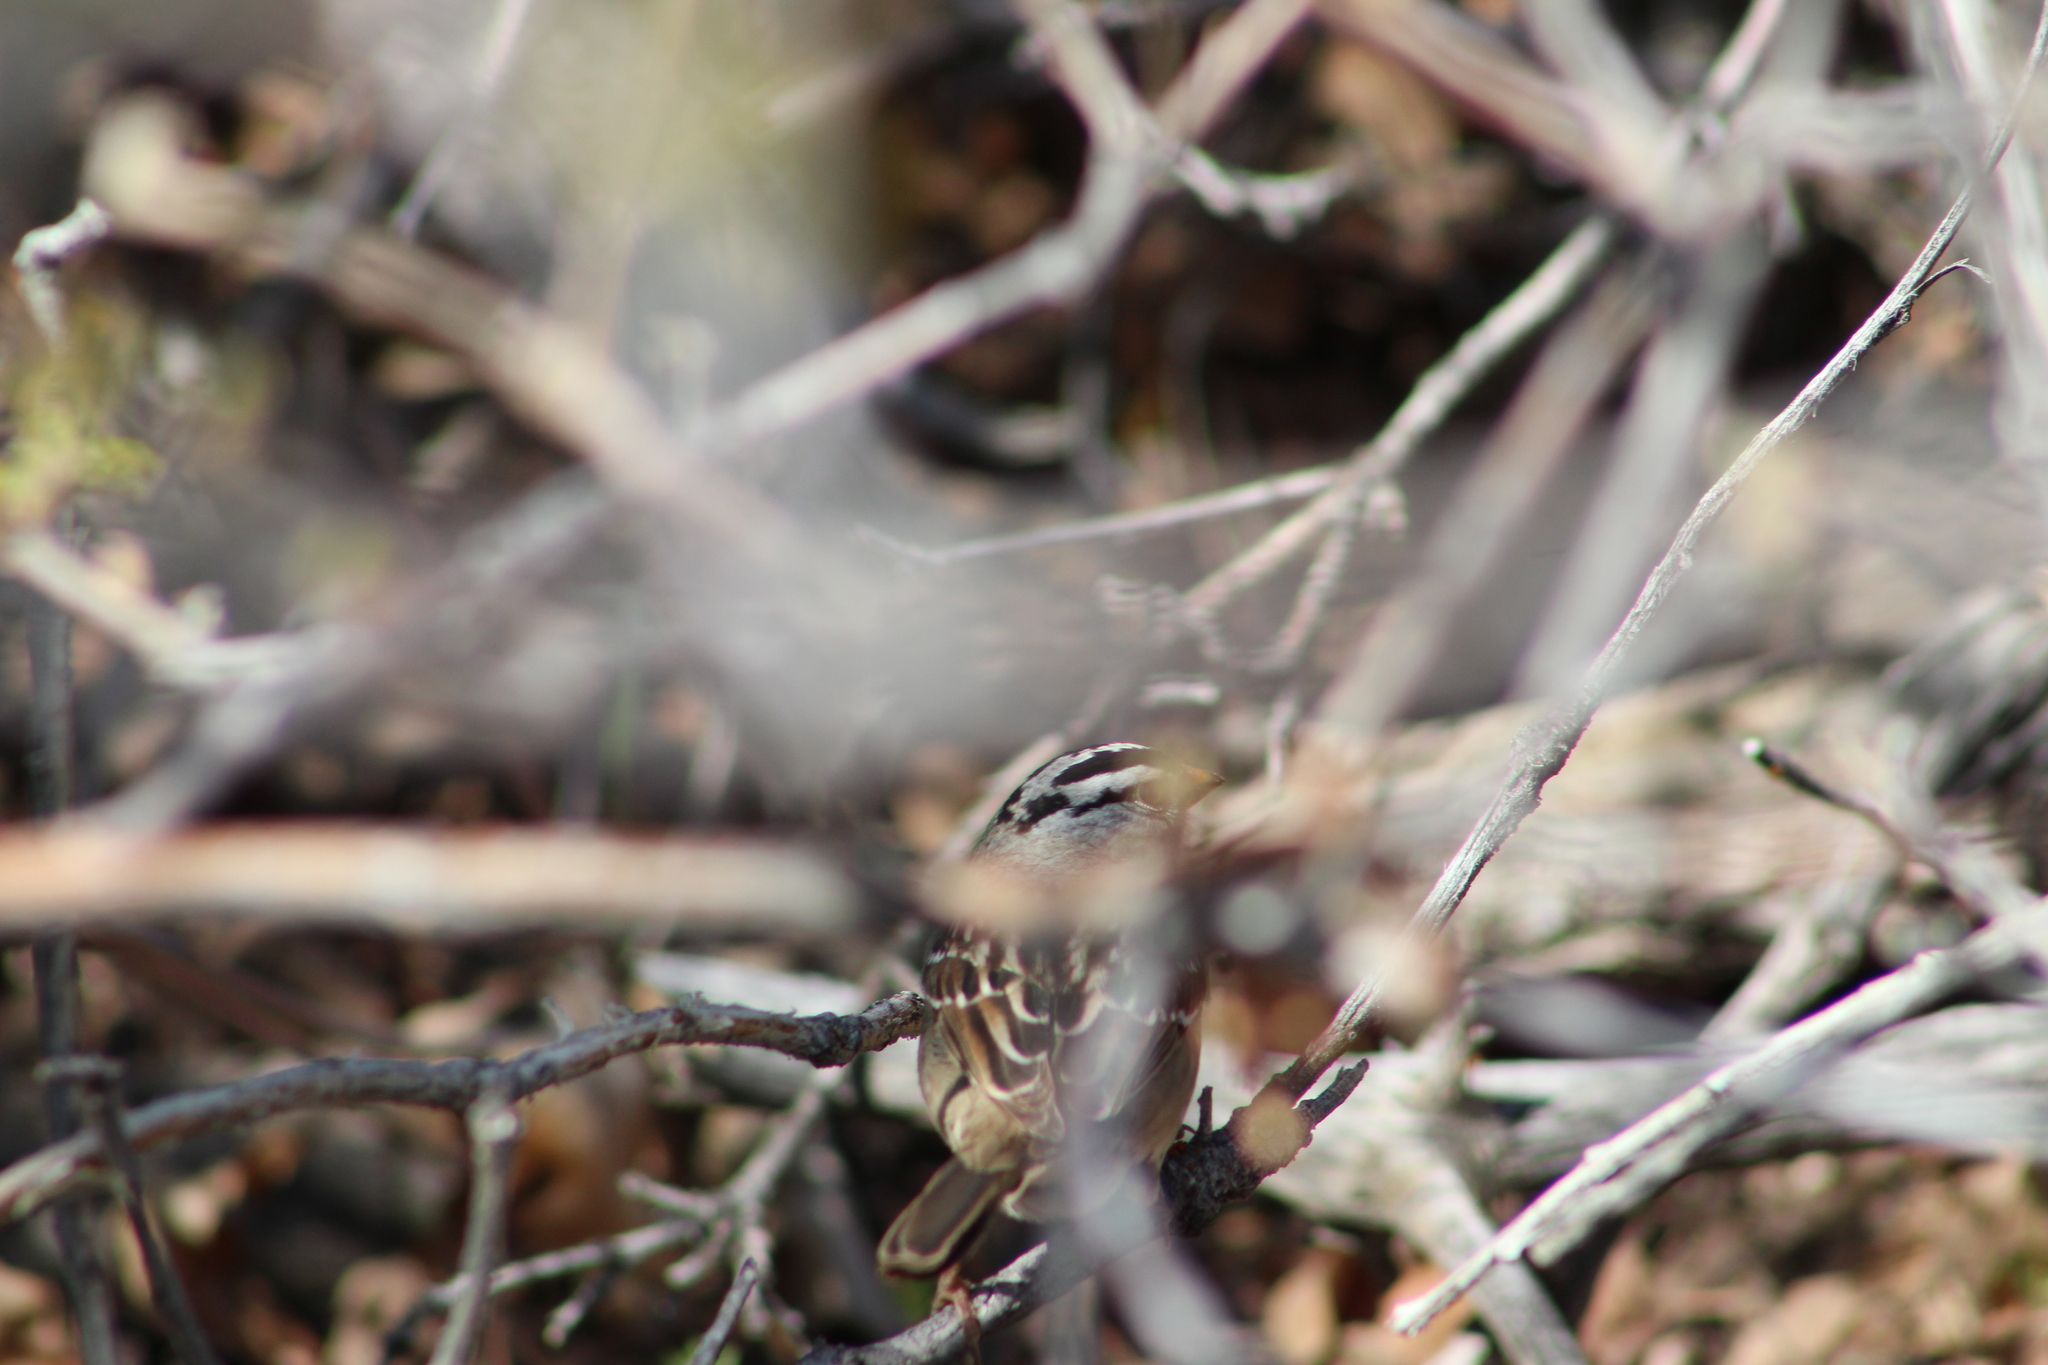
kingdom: Animalia
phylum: Chordata
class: Aves
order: Passeriformes
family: Passerellidae
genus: Zonotrichia
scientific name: Zonotrichia leucophrys
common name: White-crowned sparrow
